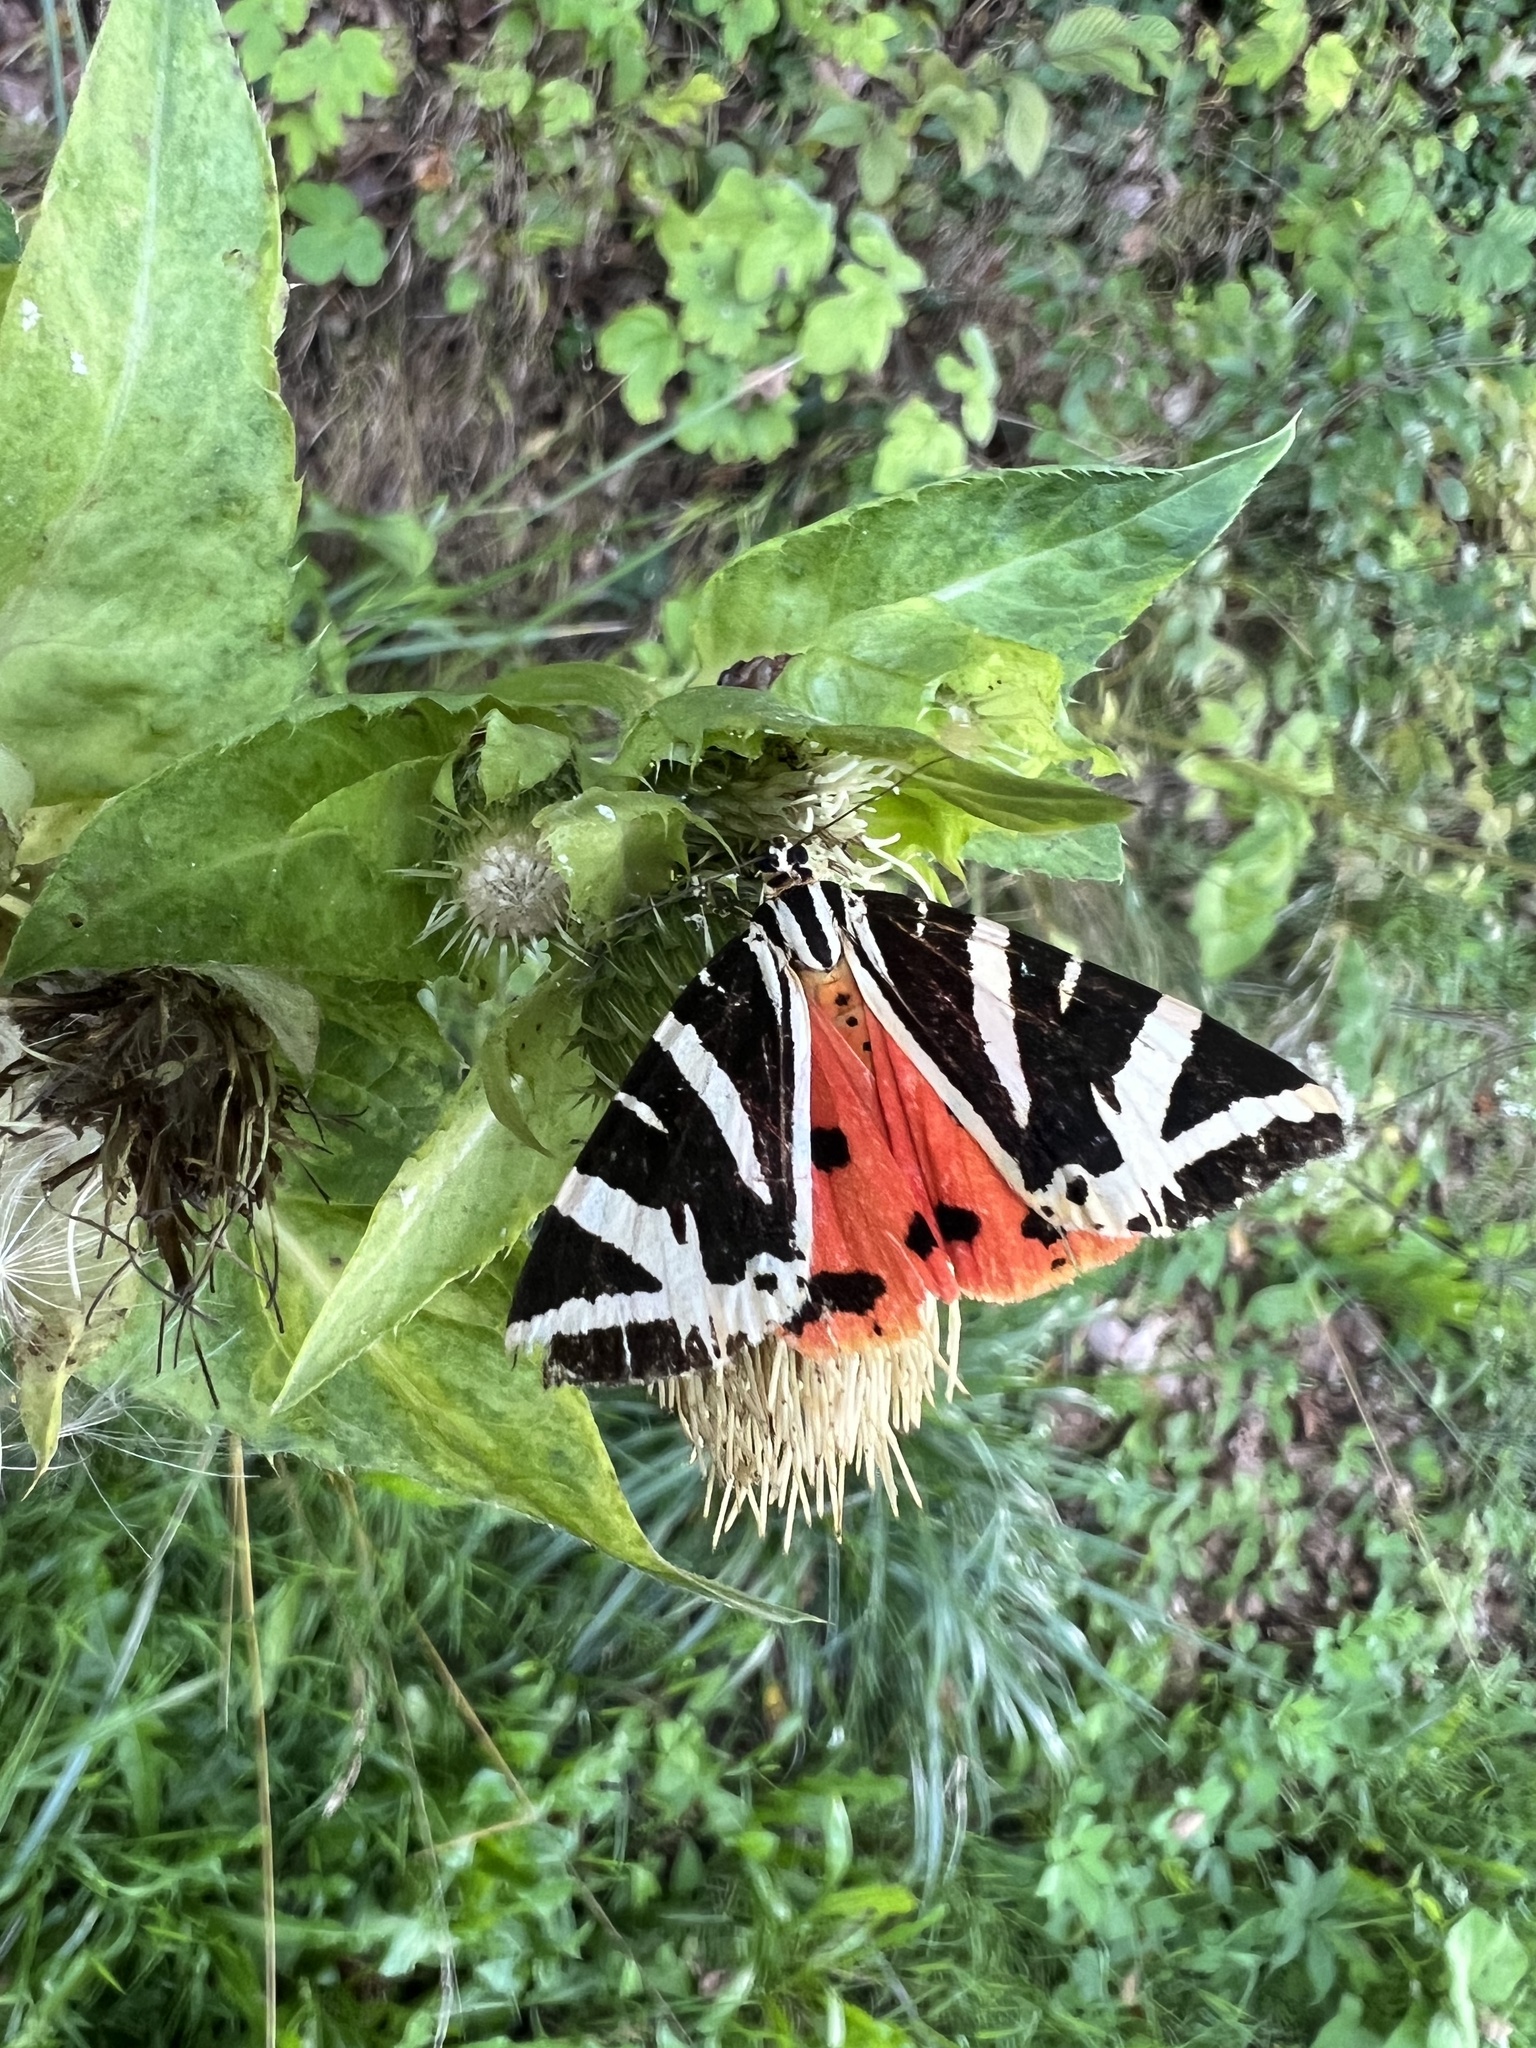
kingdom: Animalia
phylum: Arthropoda
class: Insecta
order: Lepidoptera
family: Erebidae
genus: Euplagia
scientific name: Euplagia quadripunctaria
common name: Jersey tiger
